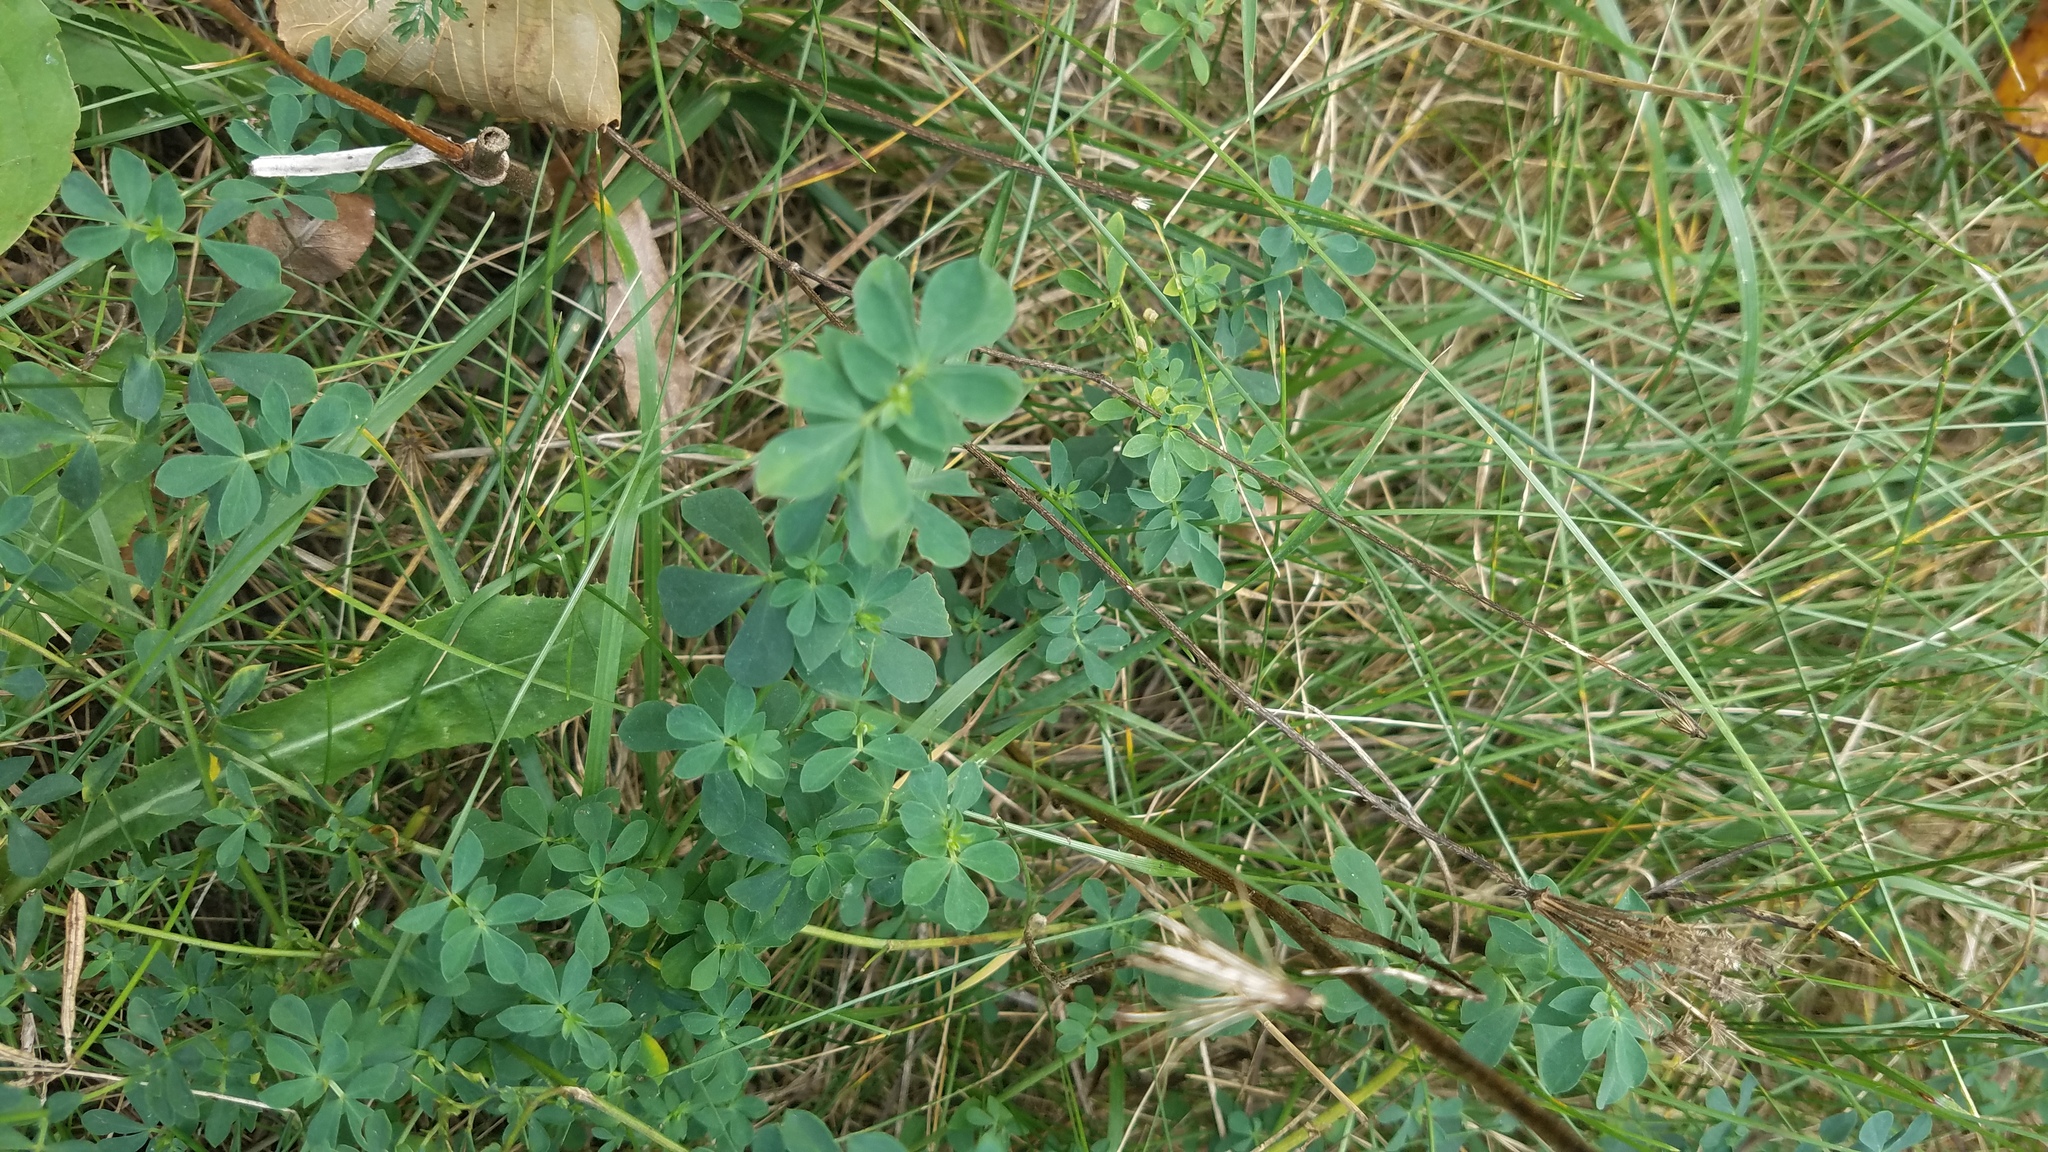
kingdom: Plantae
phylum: Tracheophyta
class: Magnoliopsida
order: Fabales
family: Fabaceae
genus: Lotus
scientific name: Lotus corniculatus
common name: Common bird's-foot-trefoil
